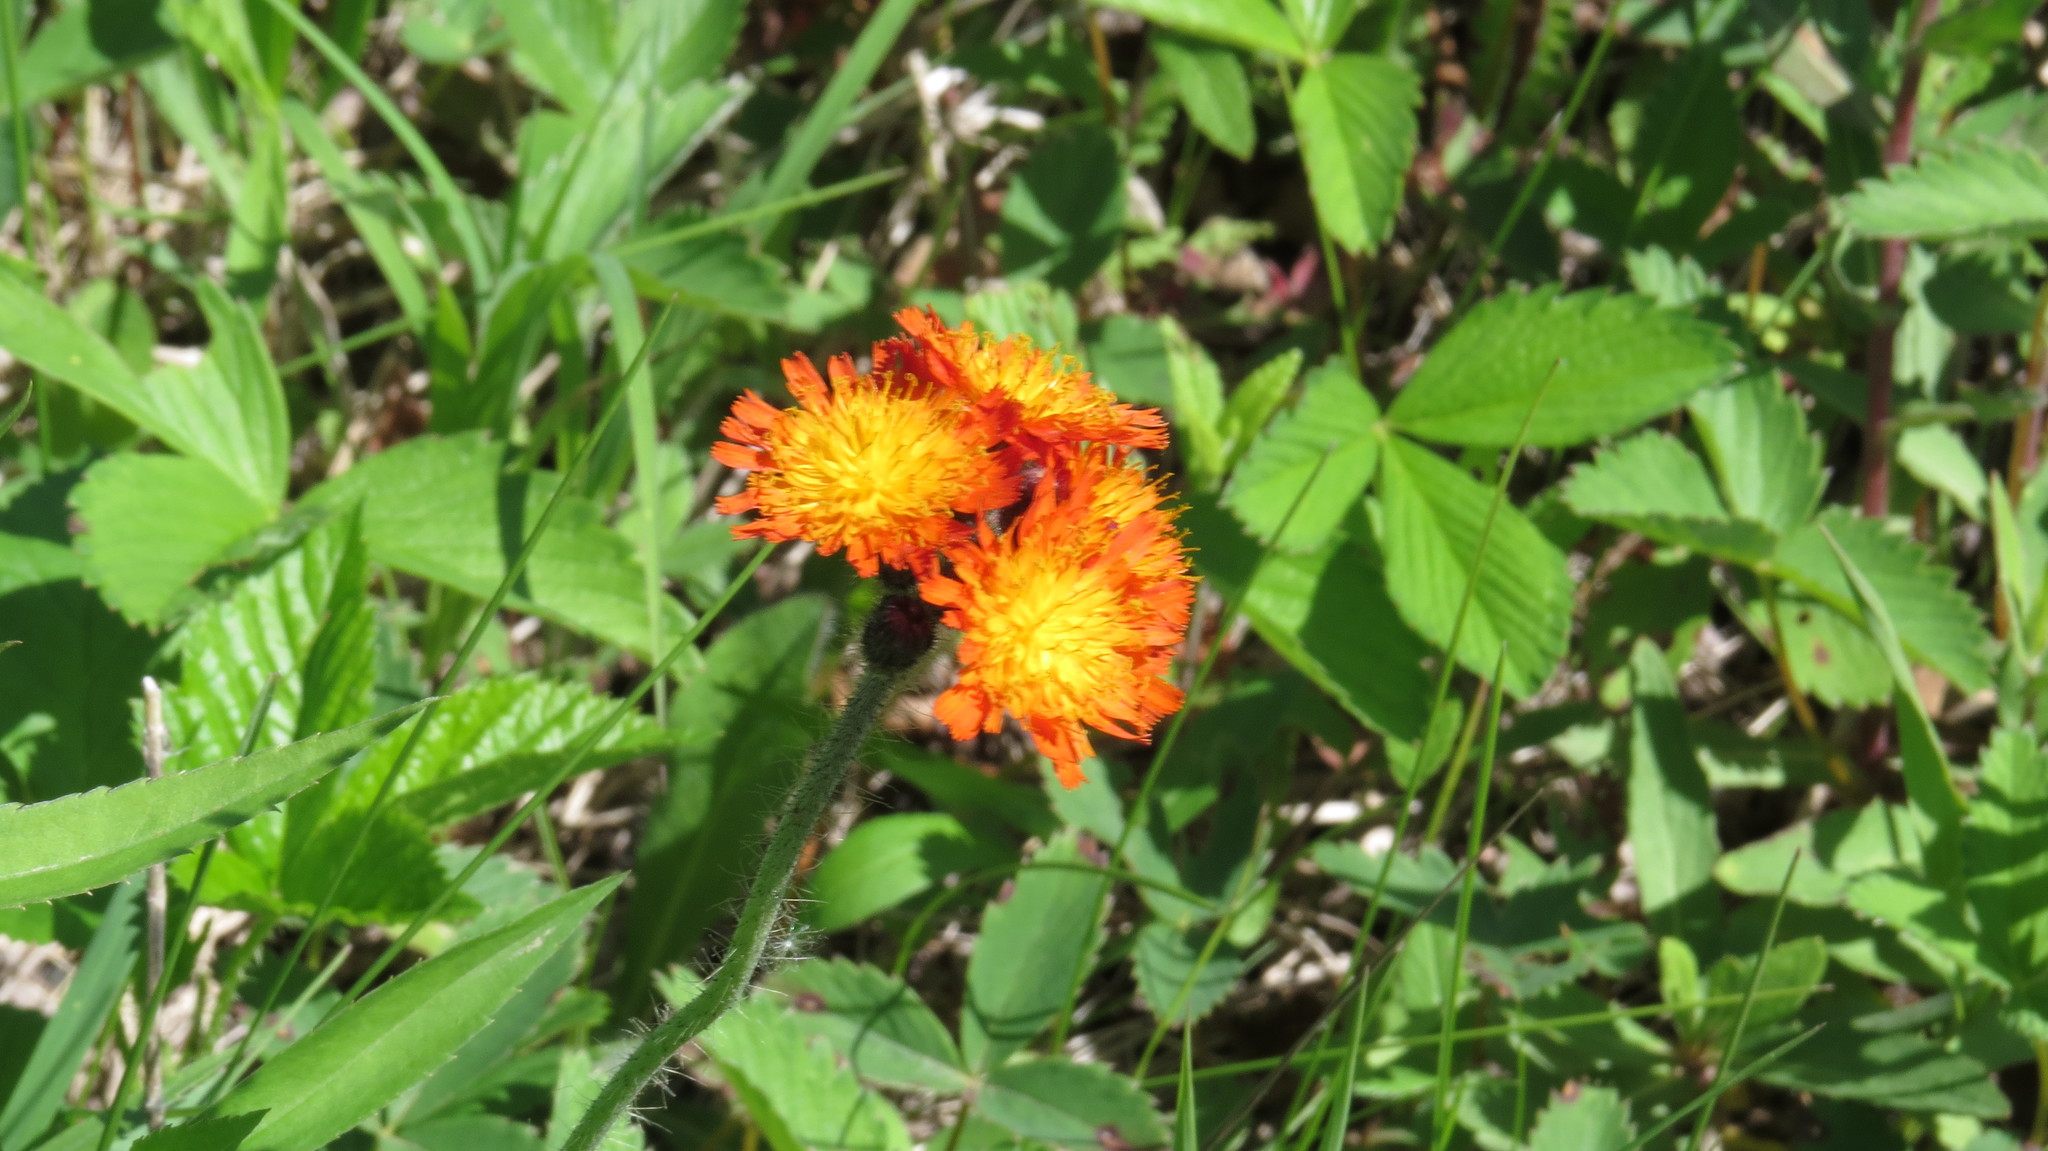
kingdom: Plantae
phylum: Tracheophyta
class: Magnoliopsida
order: Asterales
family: Asteraceae
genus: Pilosella
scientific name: Pilosella aurantiaca
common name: Fox-and-cubs
